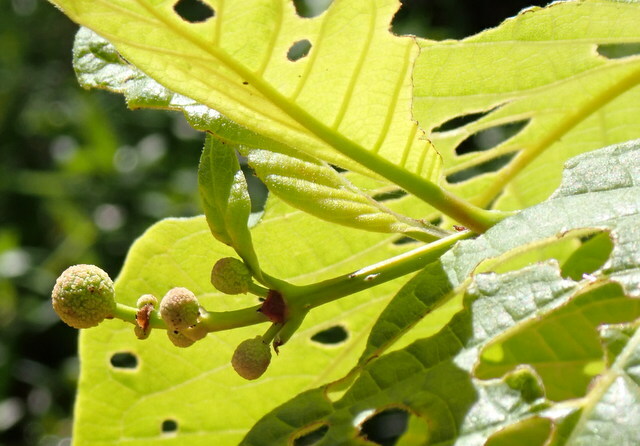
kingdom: Plantae
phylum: Tracheophyta
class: Magnoliopsida
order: Gentianales
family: Rubiaceae
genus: Cephalanthus
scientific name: Cephalanthus occidentalis
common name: Button-willow
